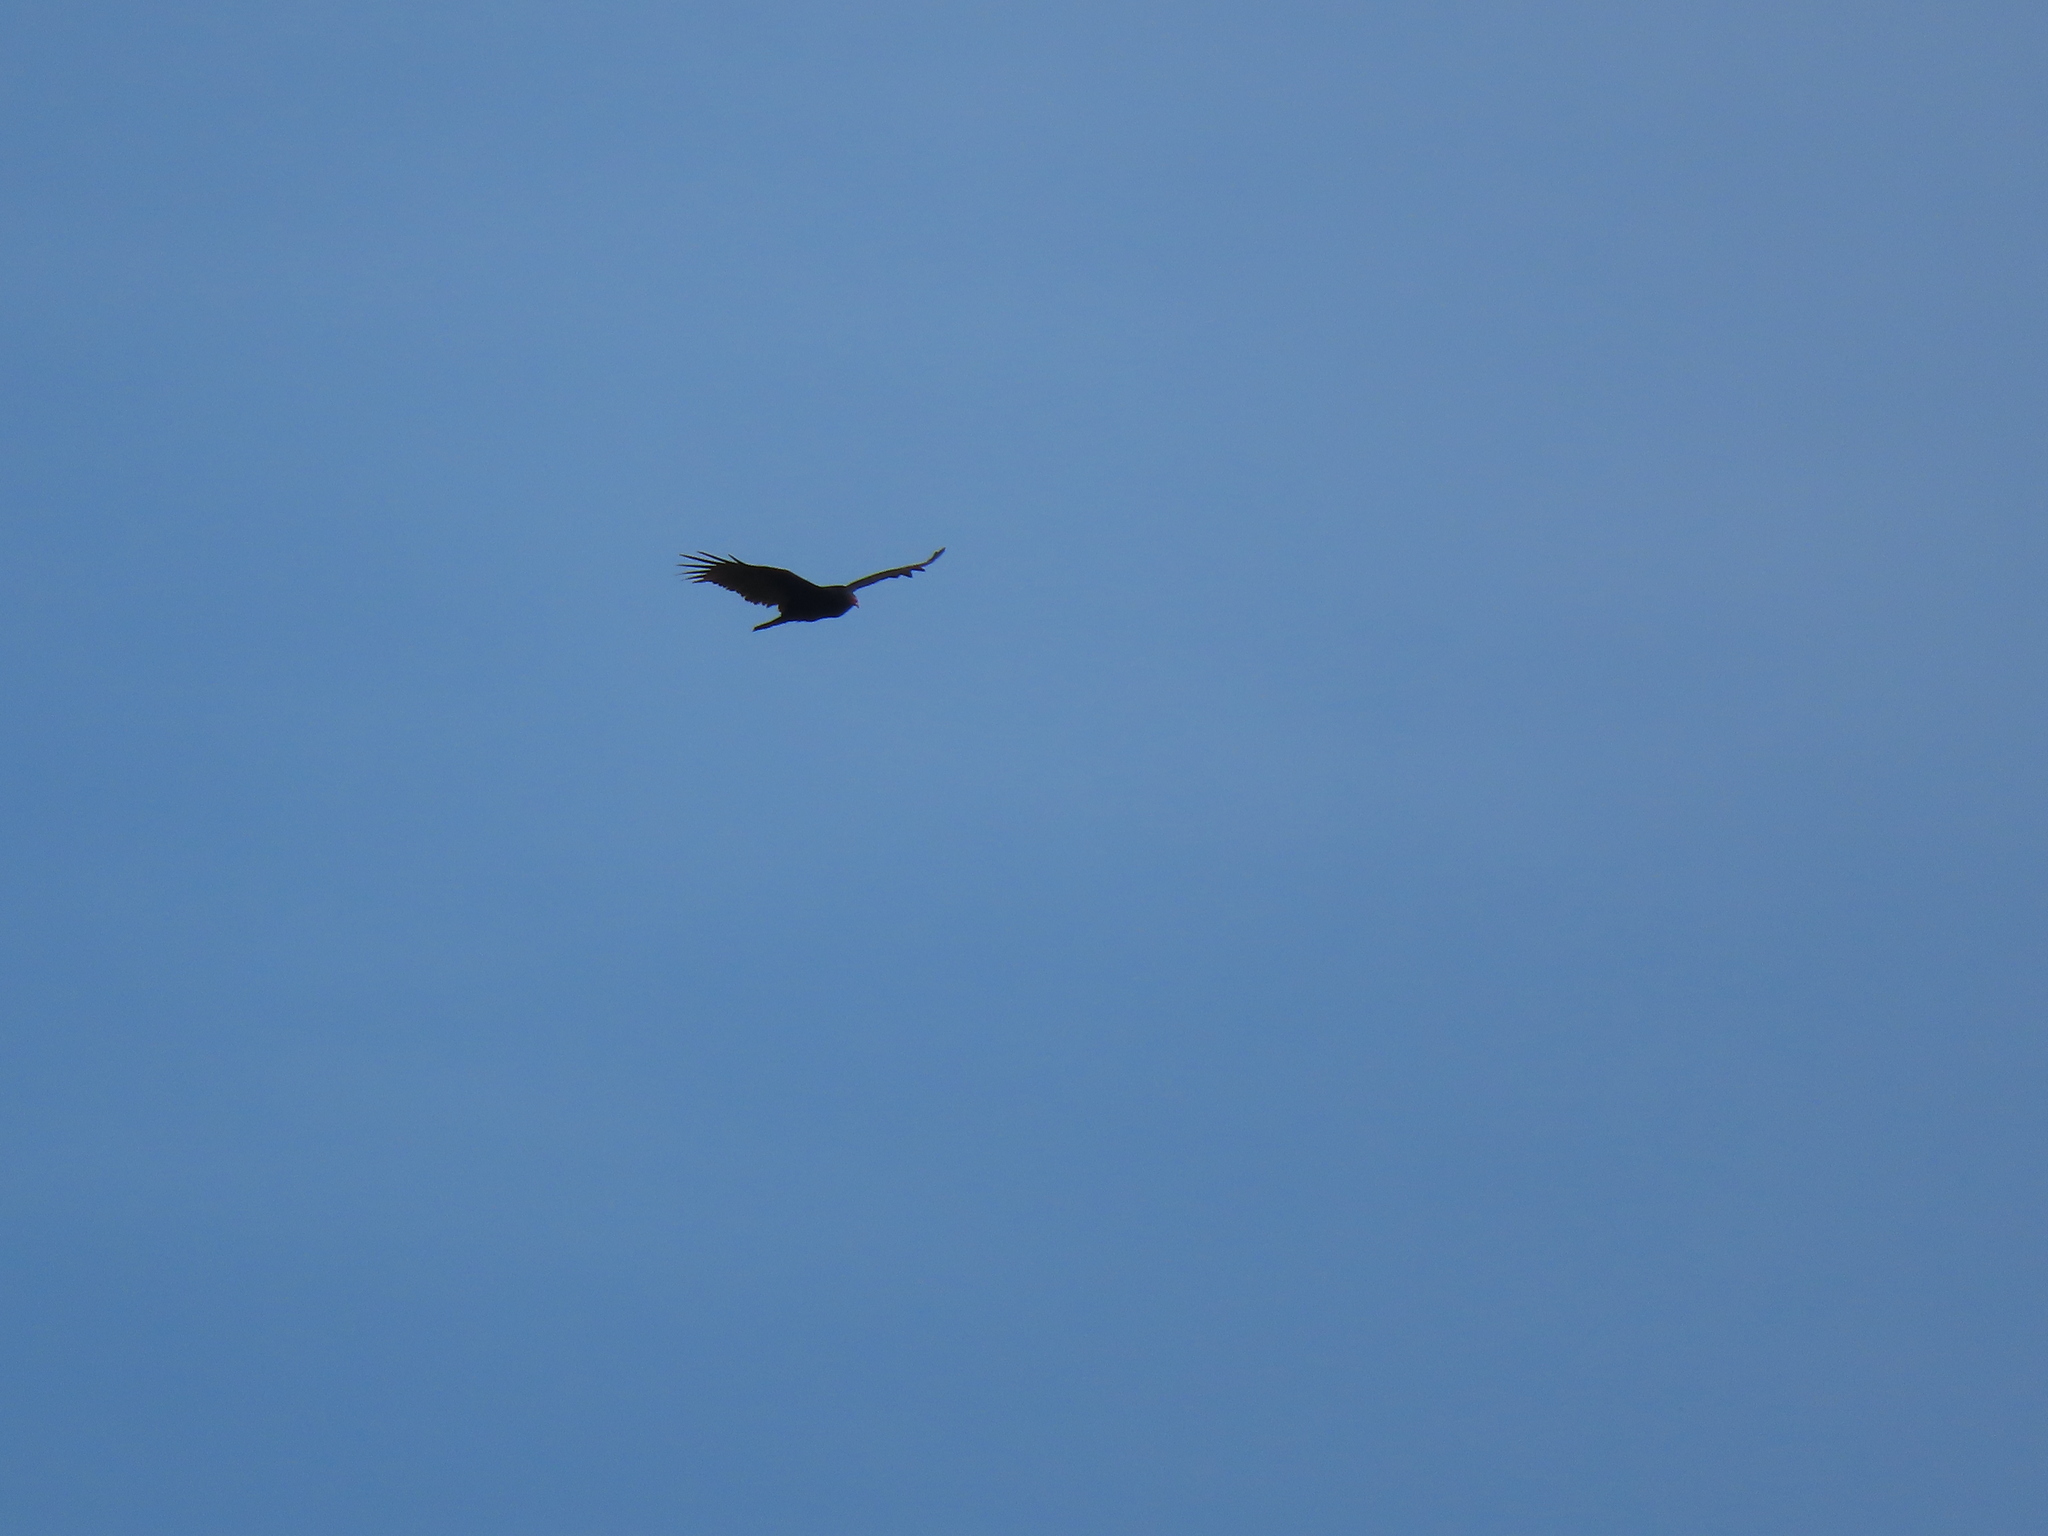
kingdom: Animalia
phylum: Chordata
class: Aves
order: Accipitriformes
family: Cathartidae
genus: Cathartes
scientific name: Cathartes aura
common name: Turkey vulture
